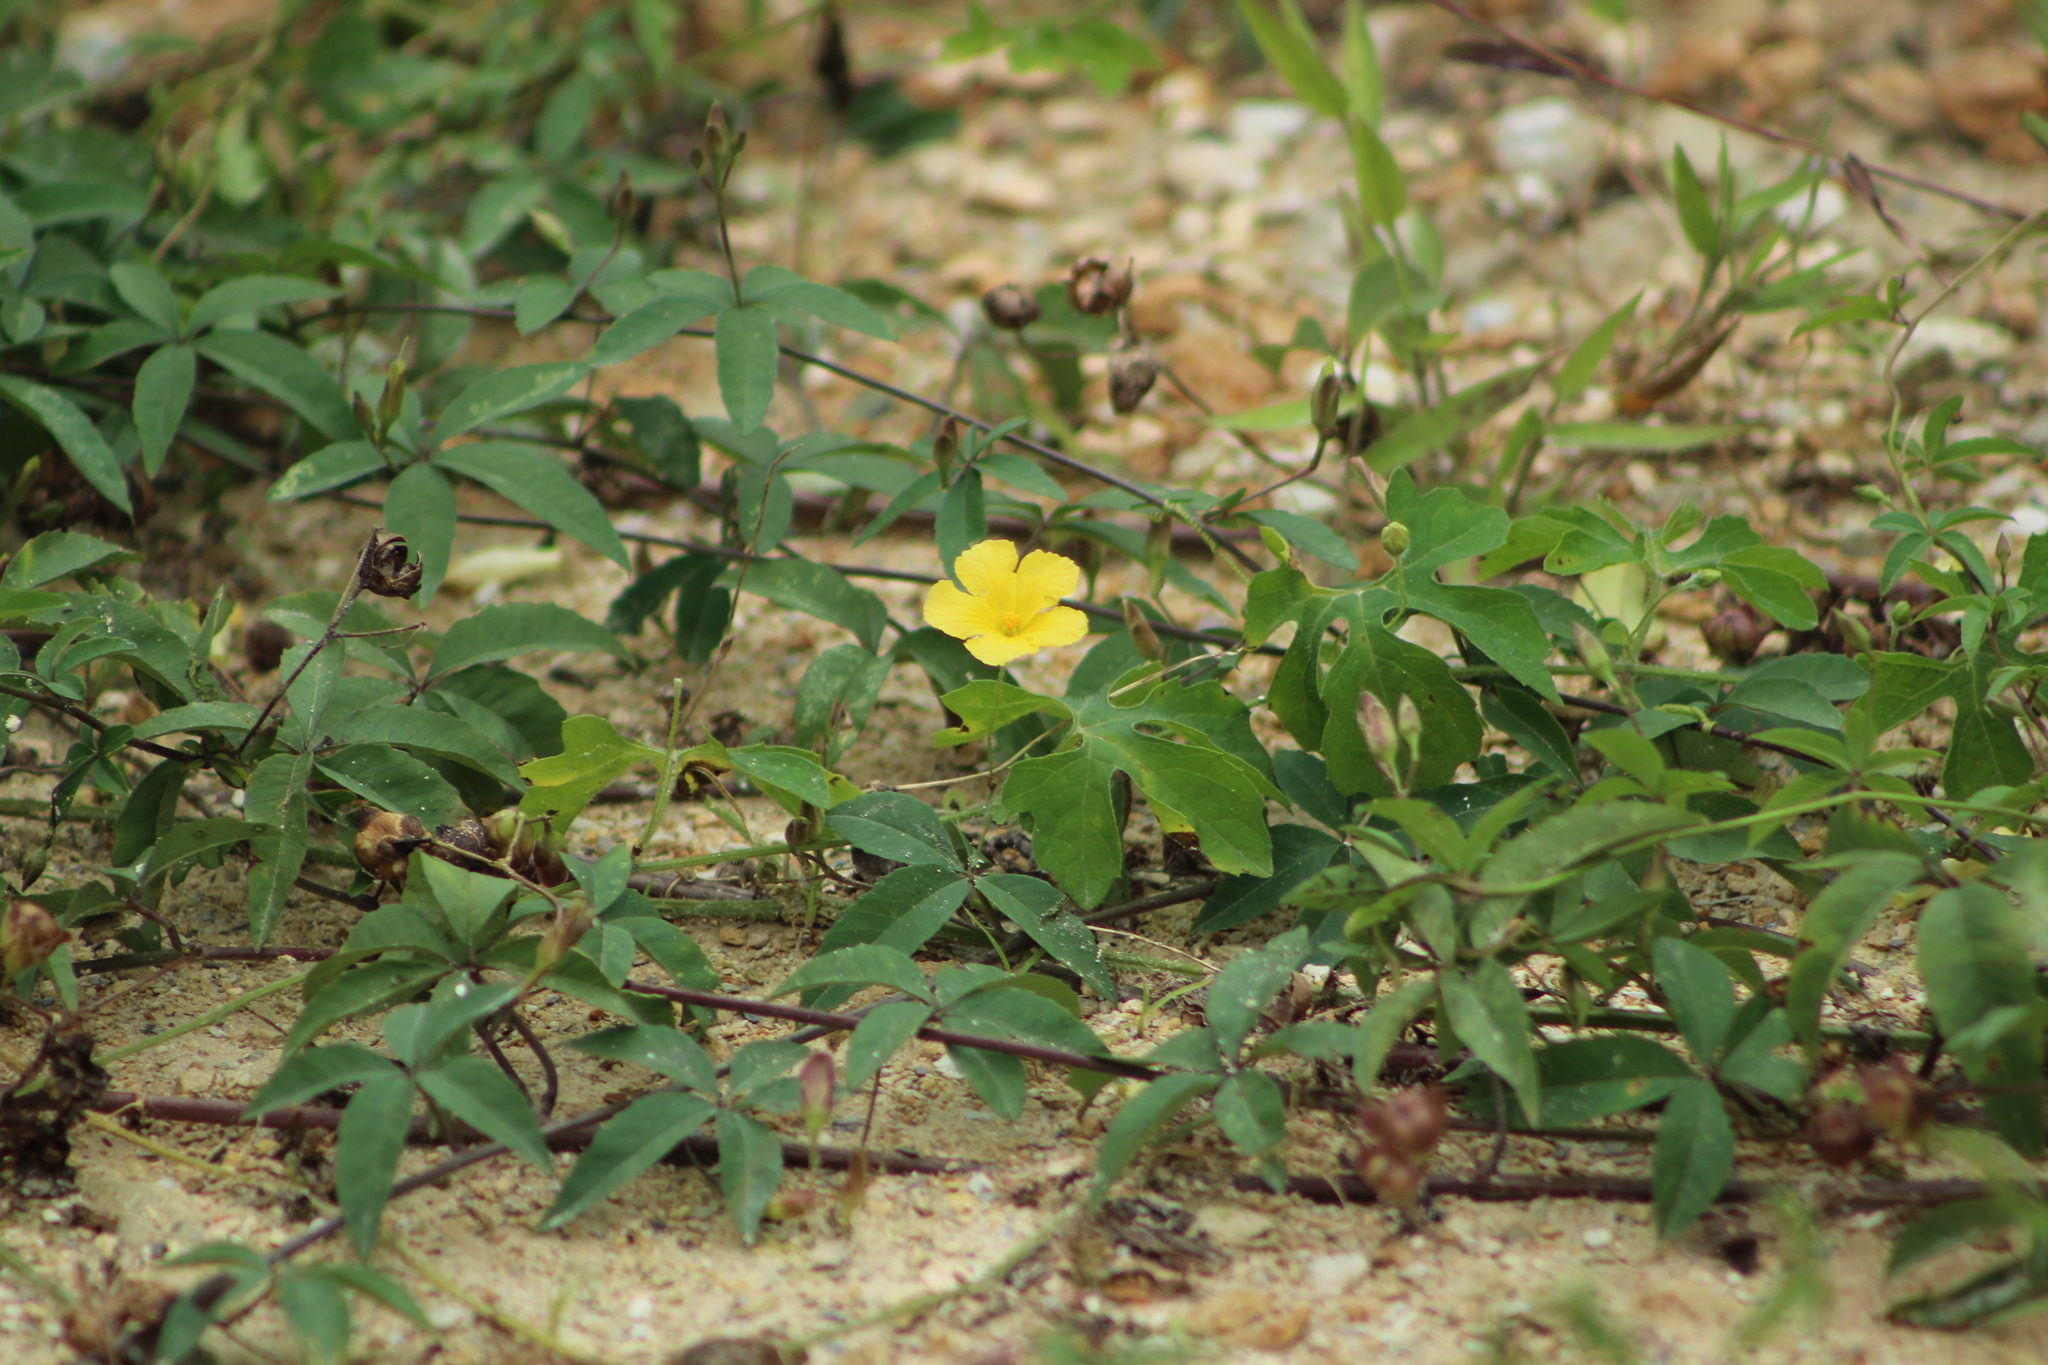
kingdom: Plantae
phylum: Tracheophyta
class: Magnoliopsida
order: Cucurbitales
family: Cucurbitaceae
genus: Momordica
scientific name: Momordica charantia
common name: Balsampear
